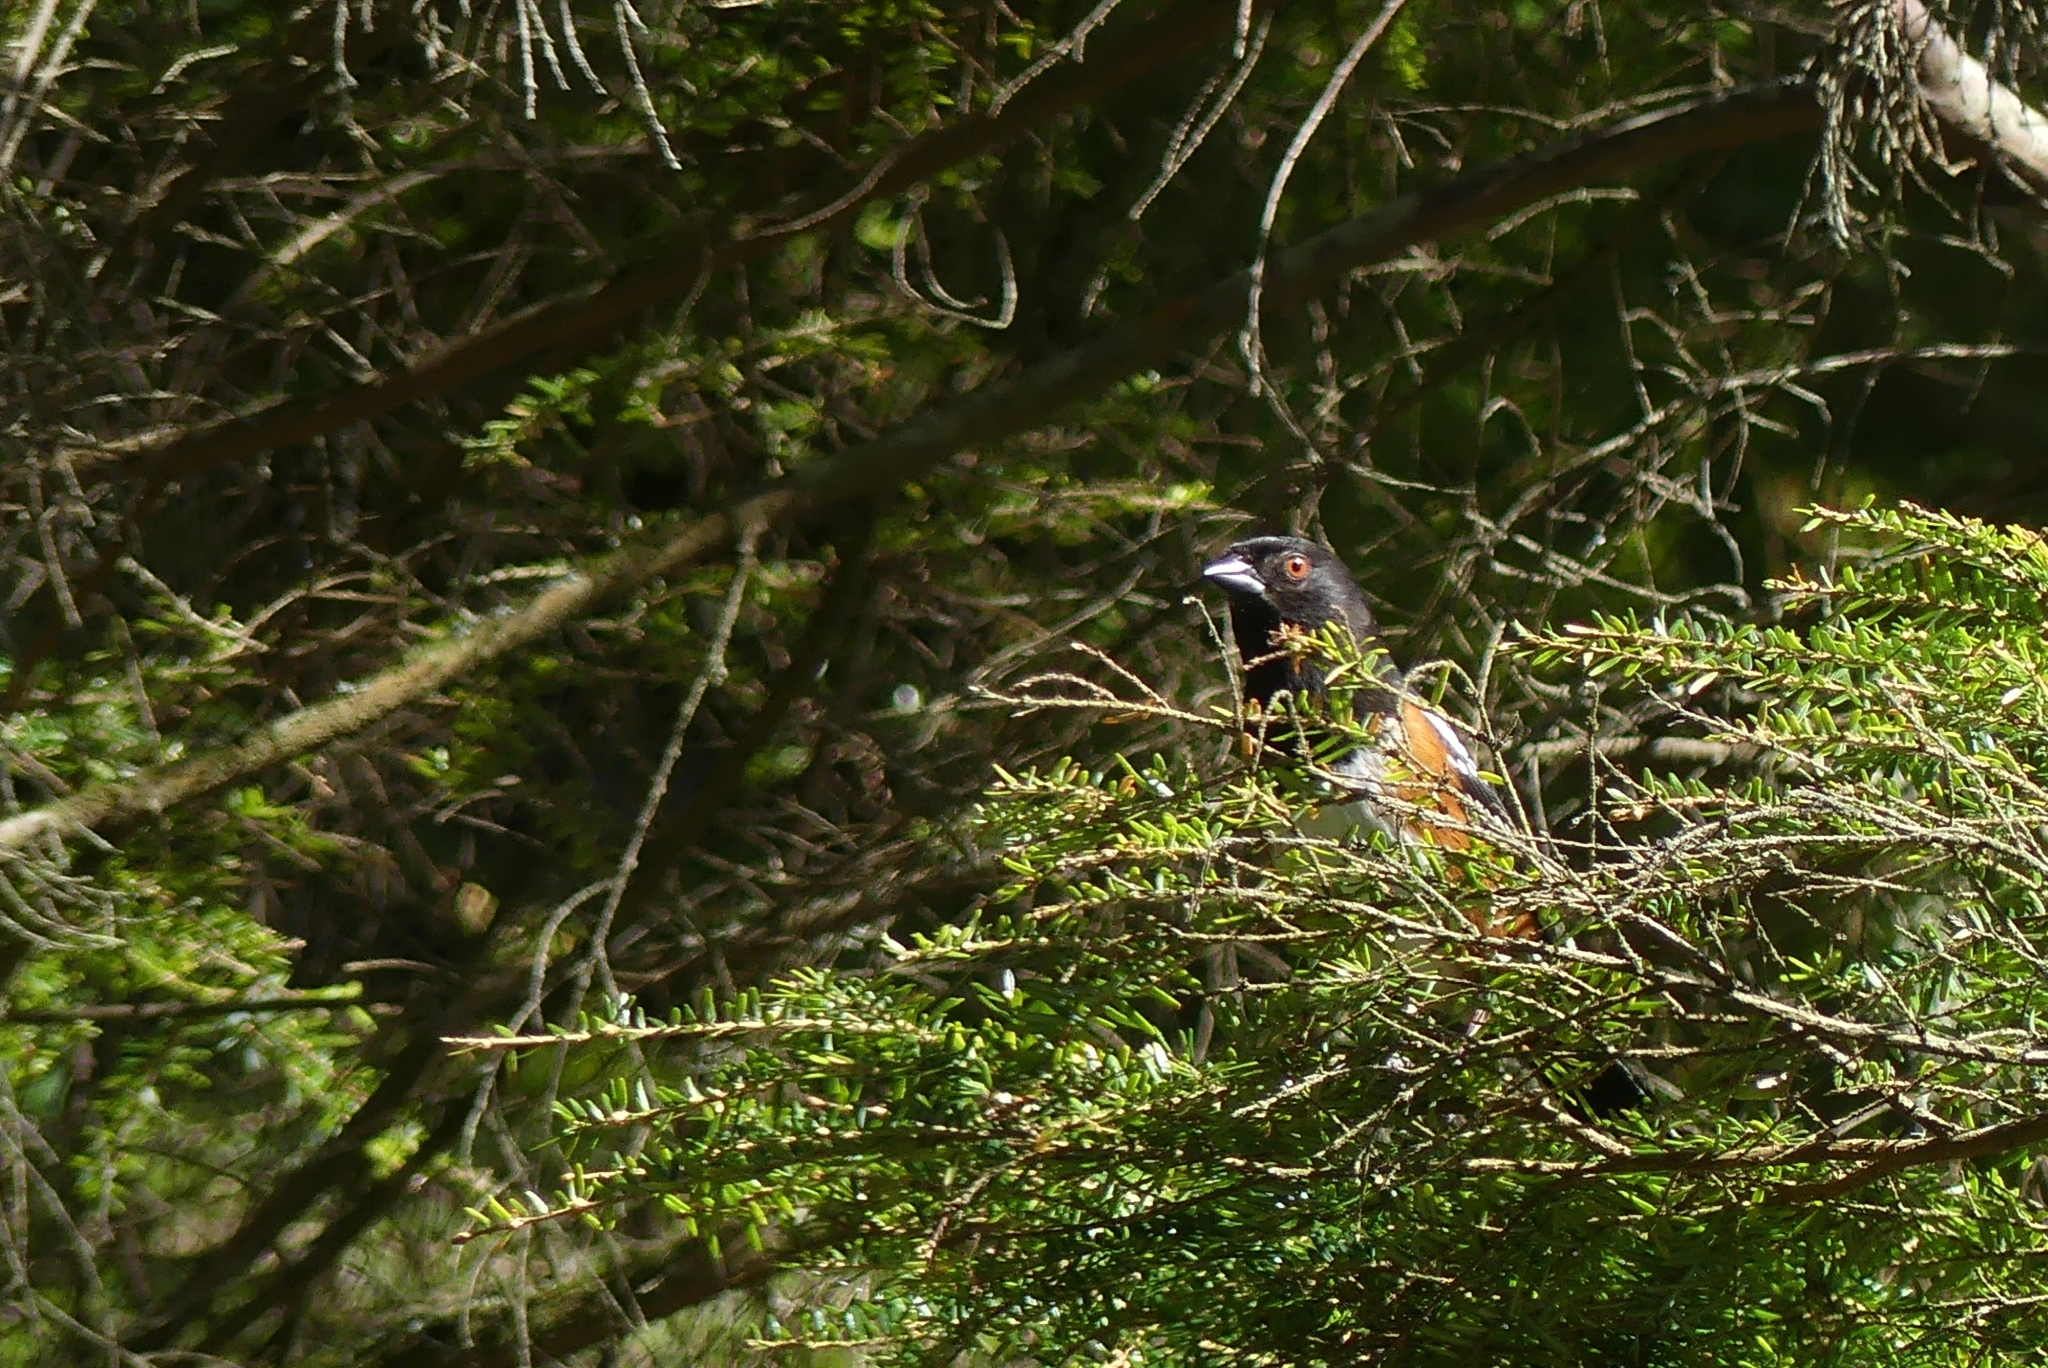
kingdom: Animalia
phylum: Chordata
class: Aves
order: Passeriformes
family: Passerellidae
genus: Pipilo
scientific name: Pipilo maculatus
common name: Spotted towhee
